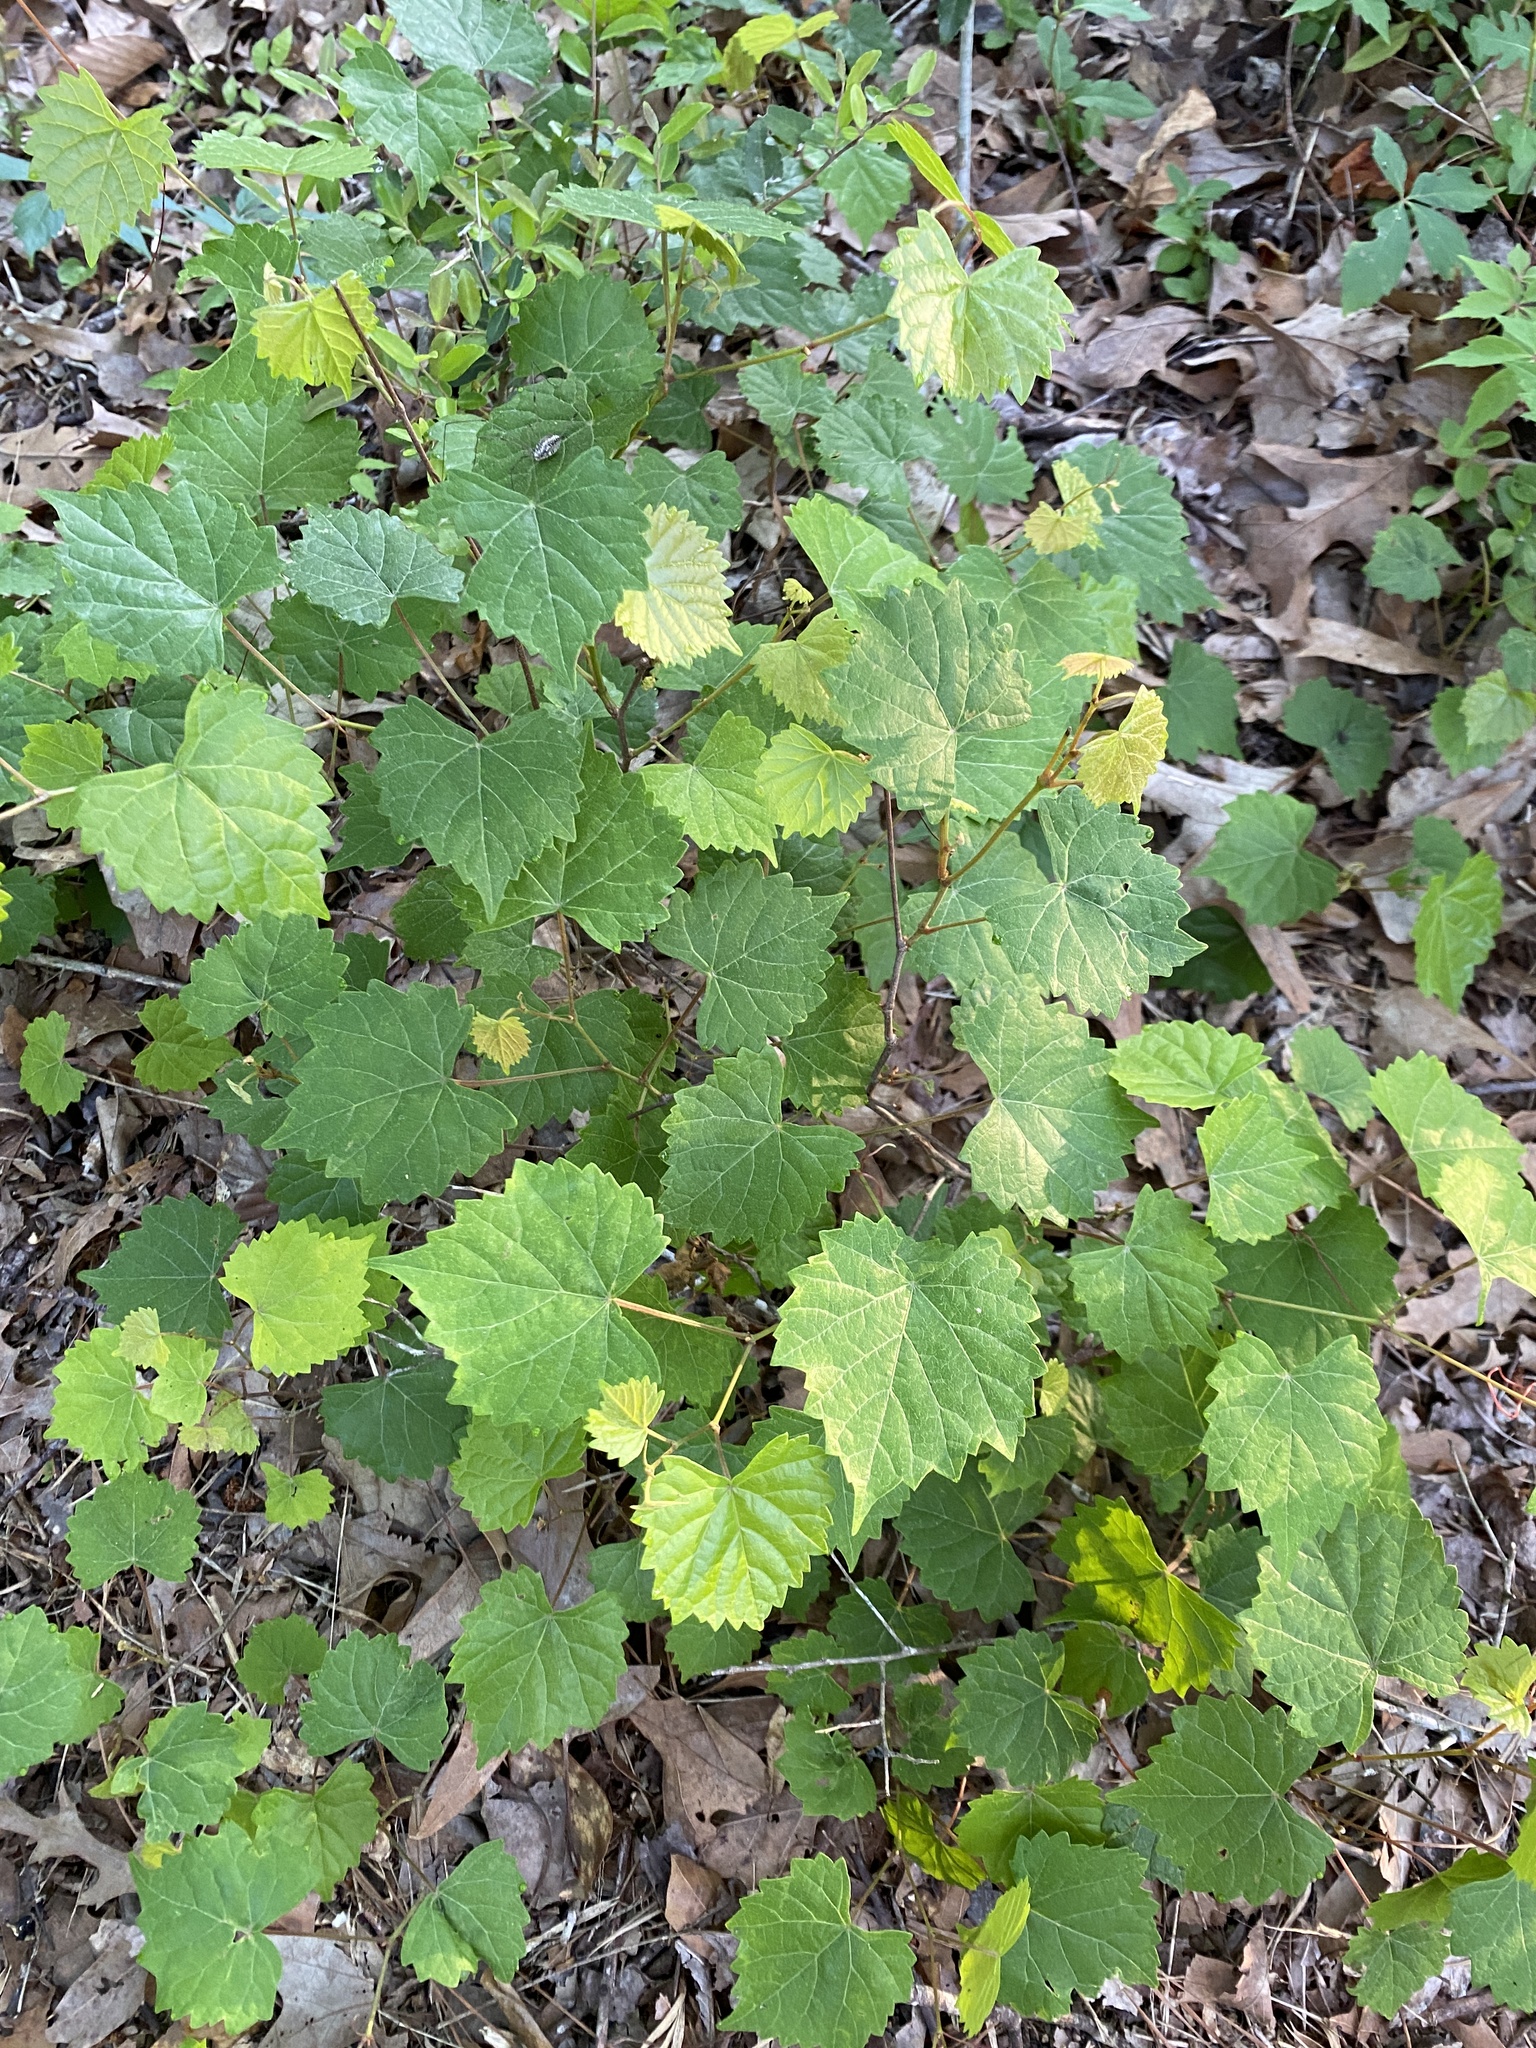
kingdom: Plantae
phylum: Tracheophyta
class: Magnoliopsida
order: Vitales
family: Vitaceae
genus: Vitis
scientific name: Vitis rotundifolia
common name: Muscadine grape
